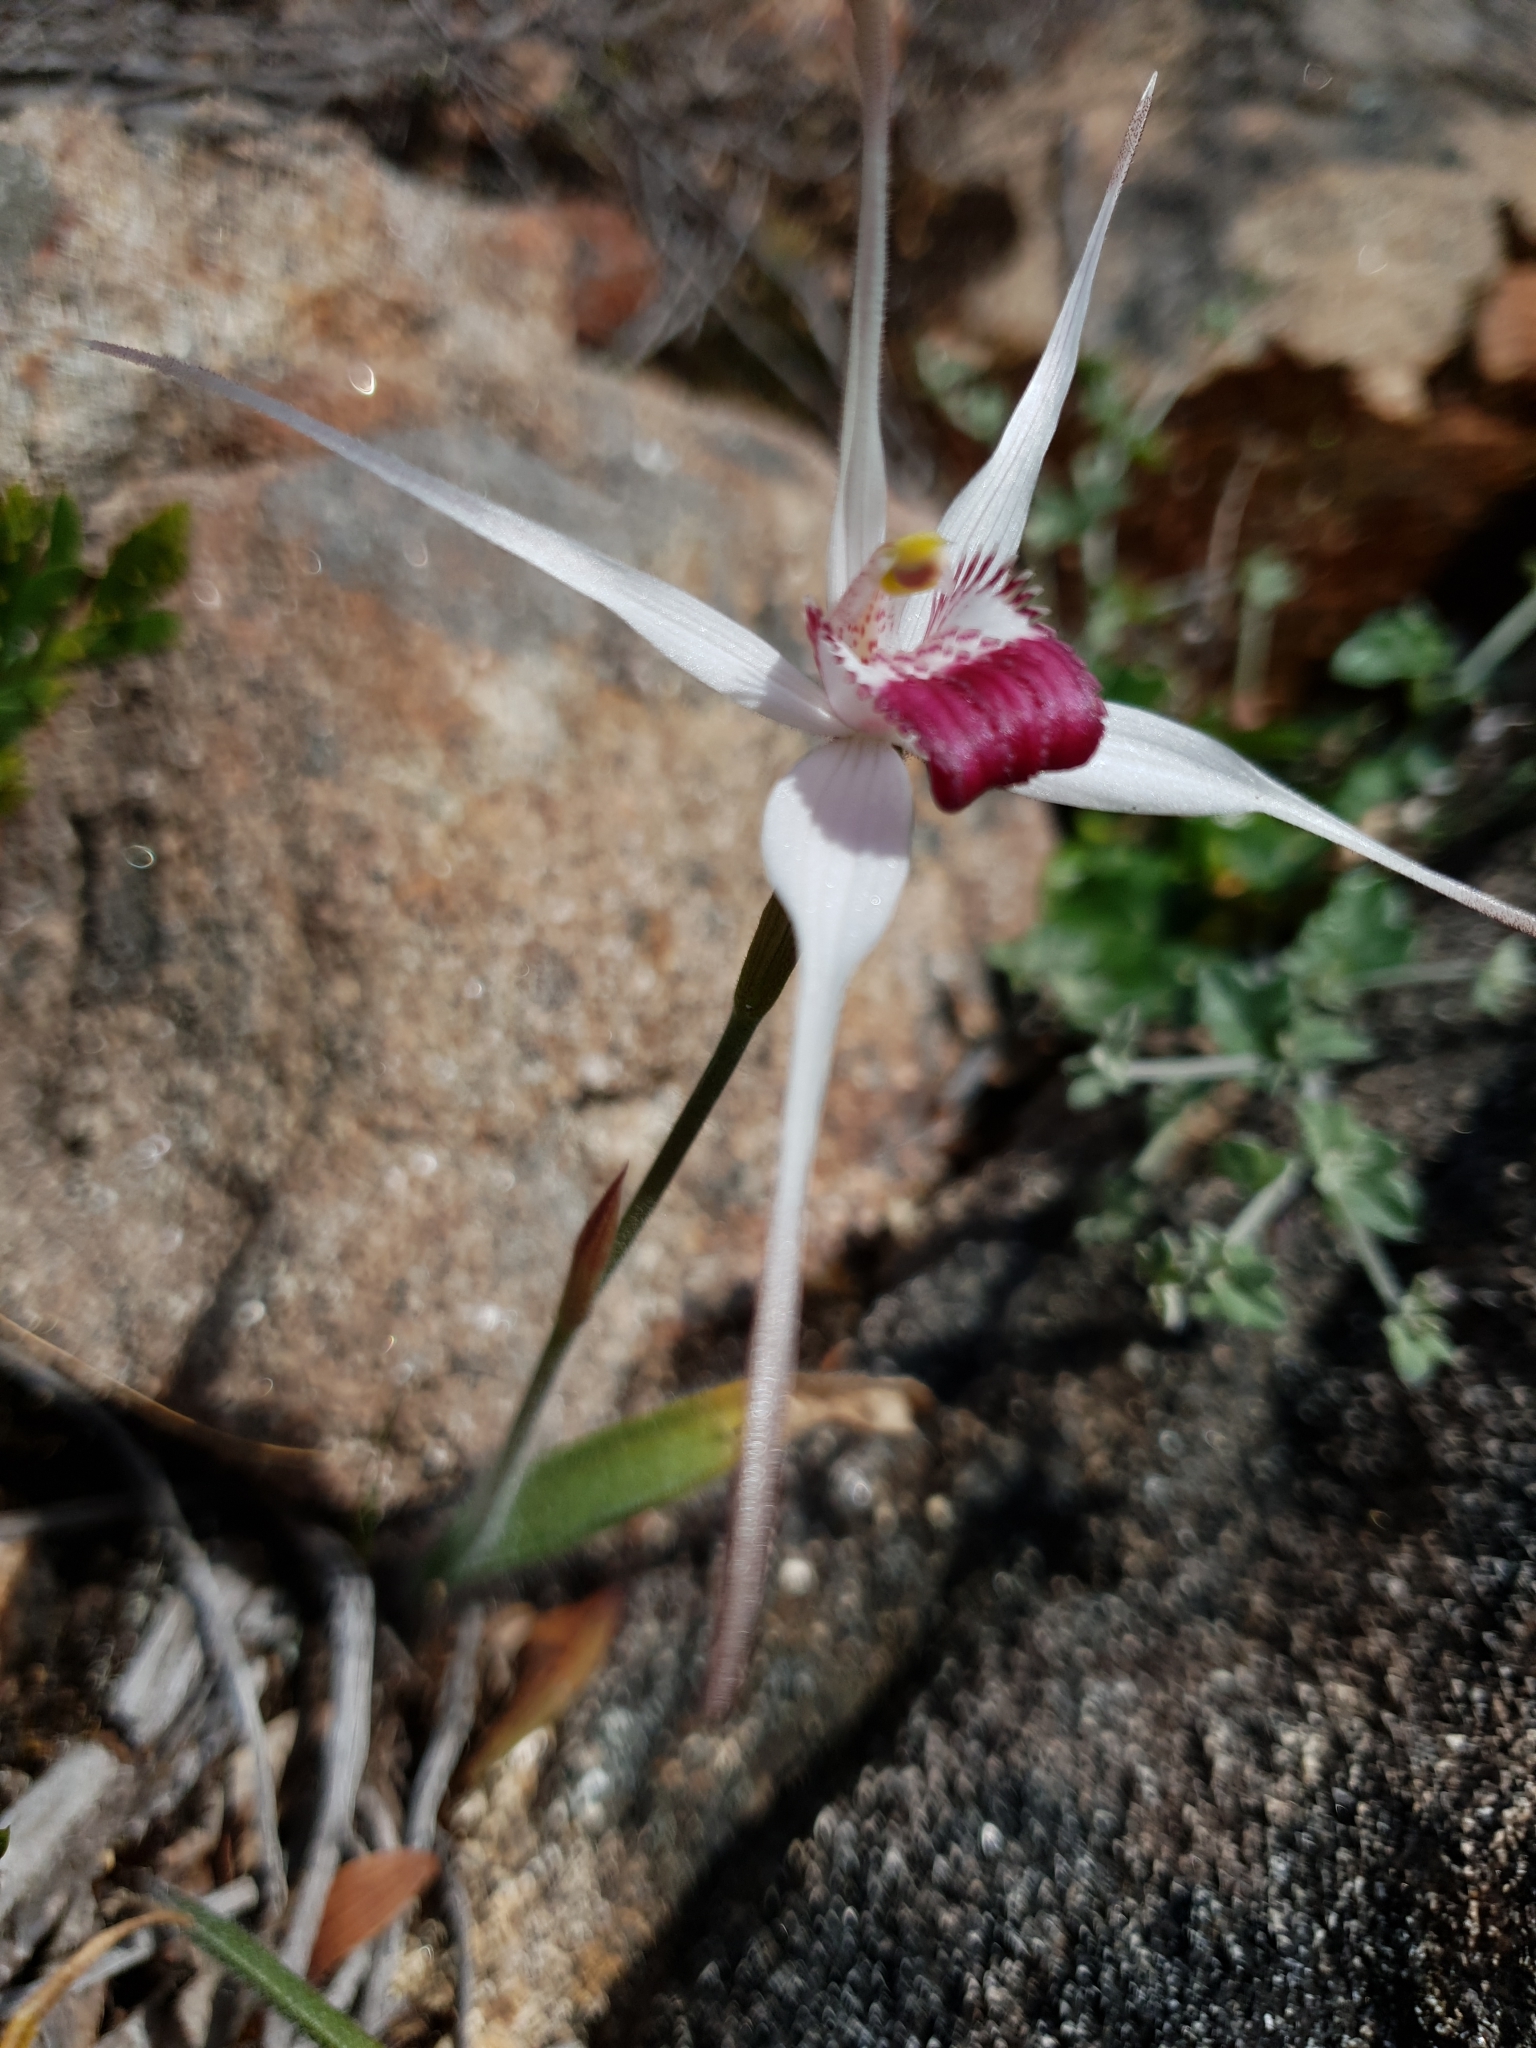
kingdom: Plantae
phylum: Tracheophyta
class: Liliopsida
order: Asparagales
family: Orchidaceae
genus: Caladenia
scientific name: Caladenia nivalis
